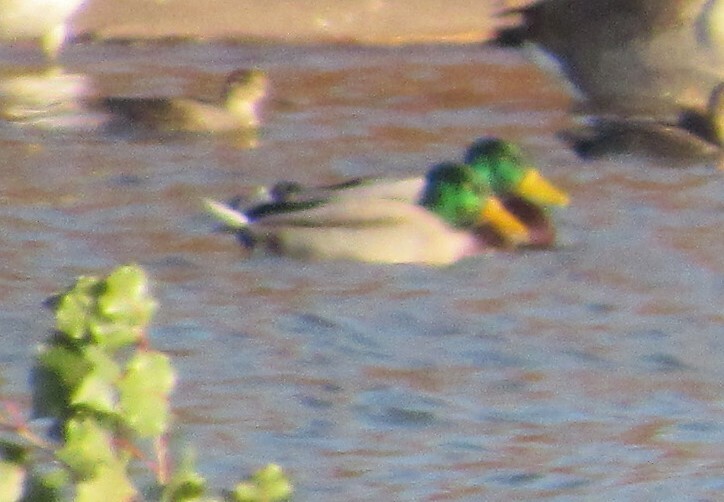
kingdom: Animalia
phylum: Chordata
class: Aves
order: Anseriformes
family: Anatidae
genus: Anas
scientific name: Anas platyrhynchos
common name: Mallard
